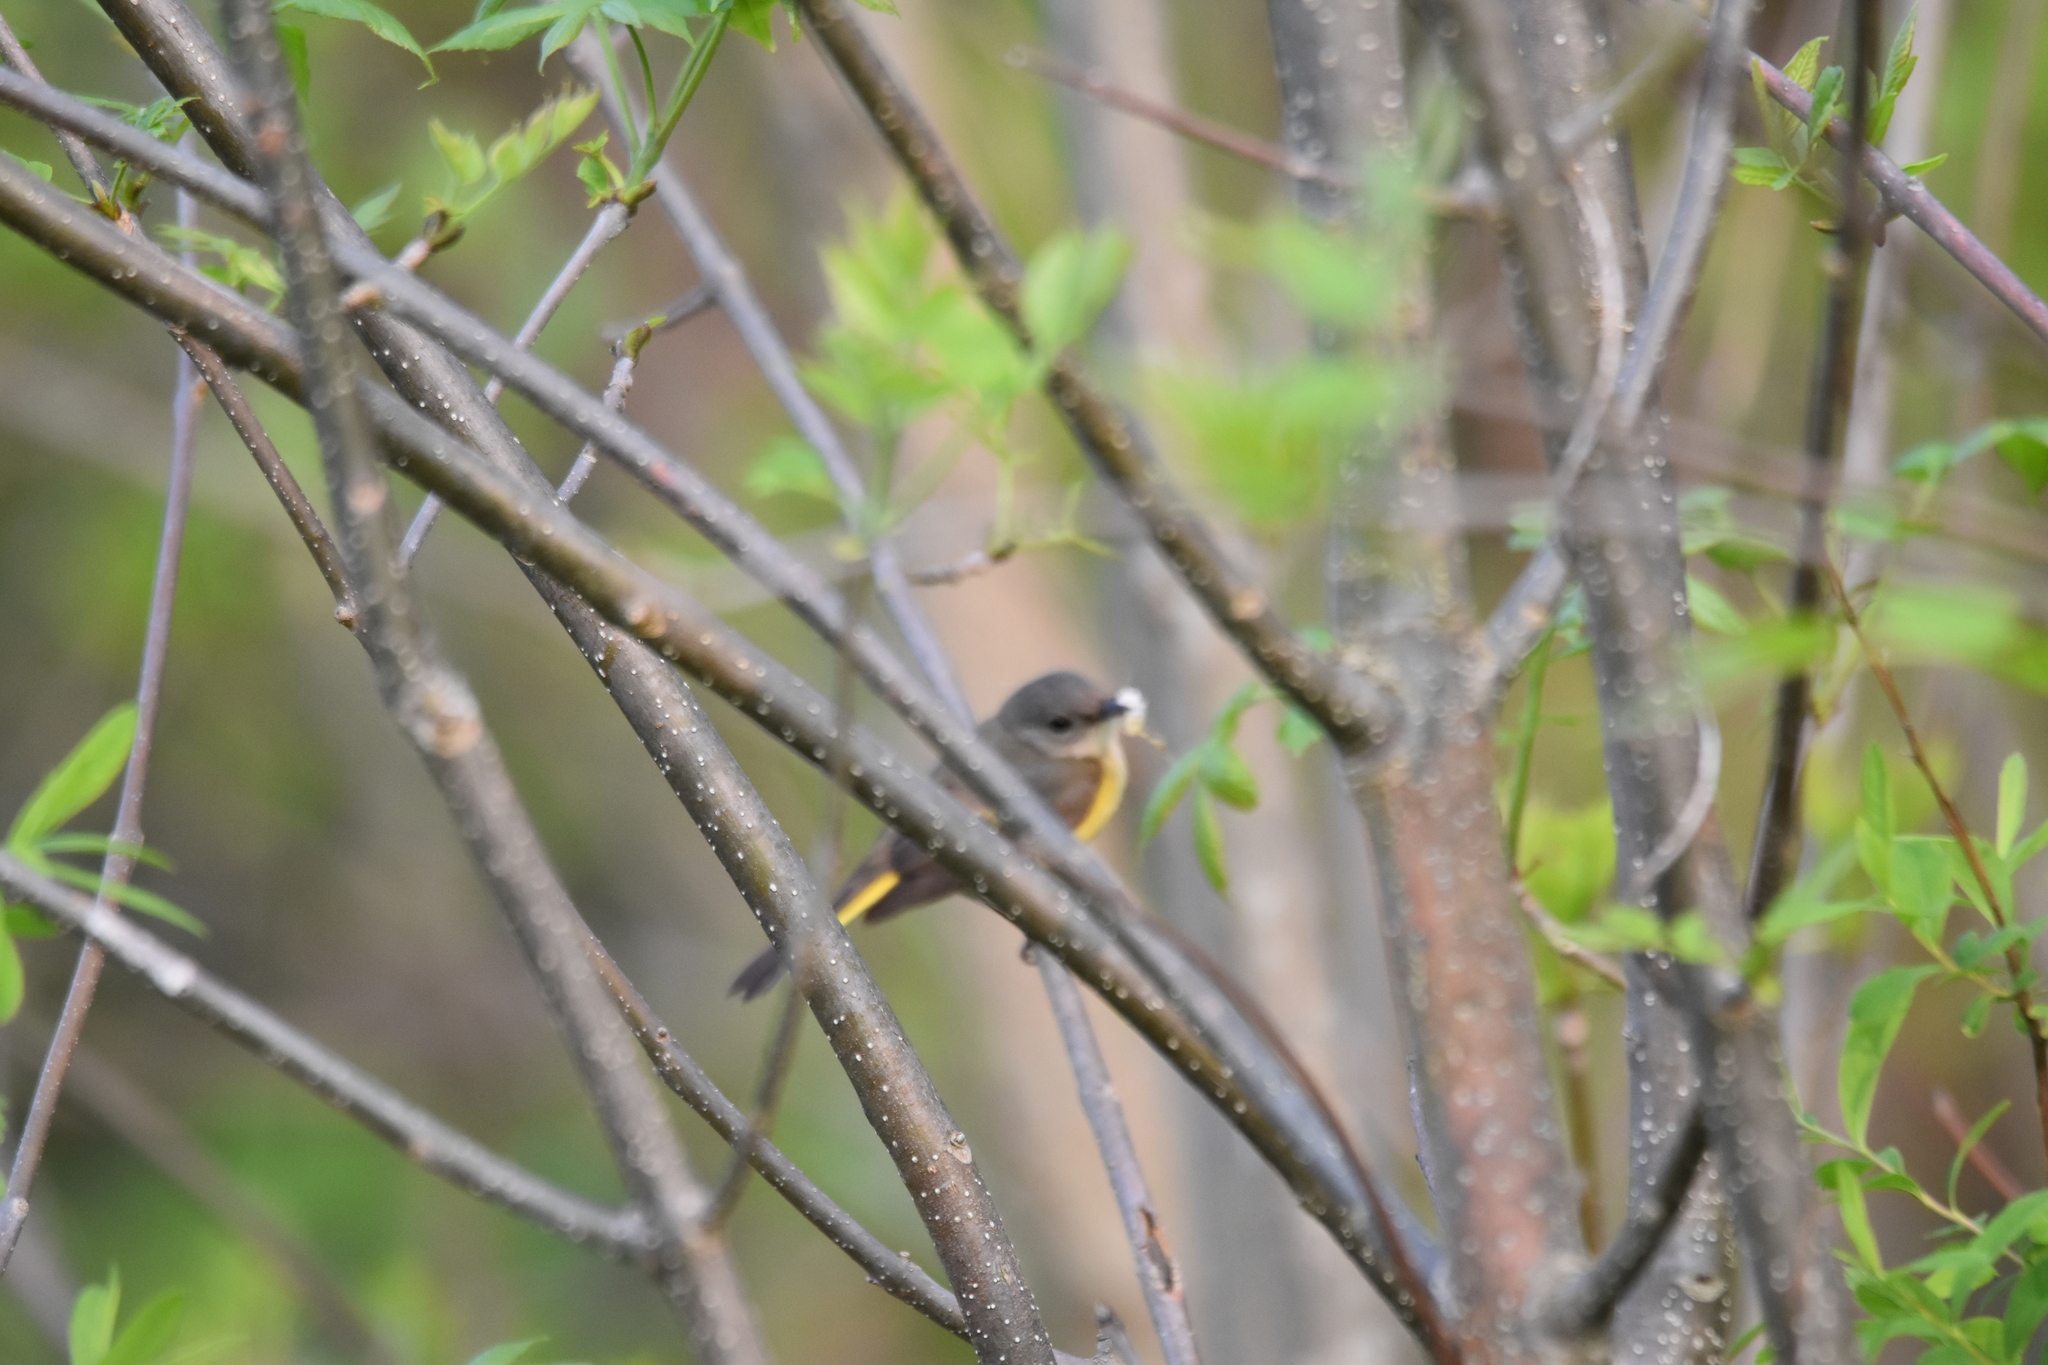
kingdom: Animalia
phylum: Chordata
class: Aves
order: Passeriformes
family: Parulidae
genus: Setophaga
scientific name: Setophaga ruticilla
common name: American redstart
